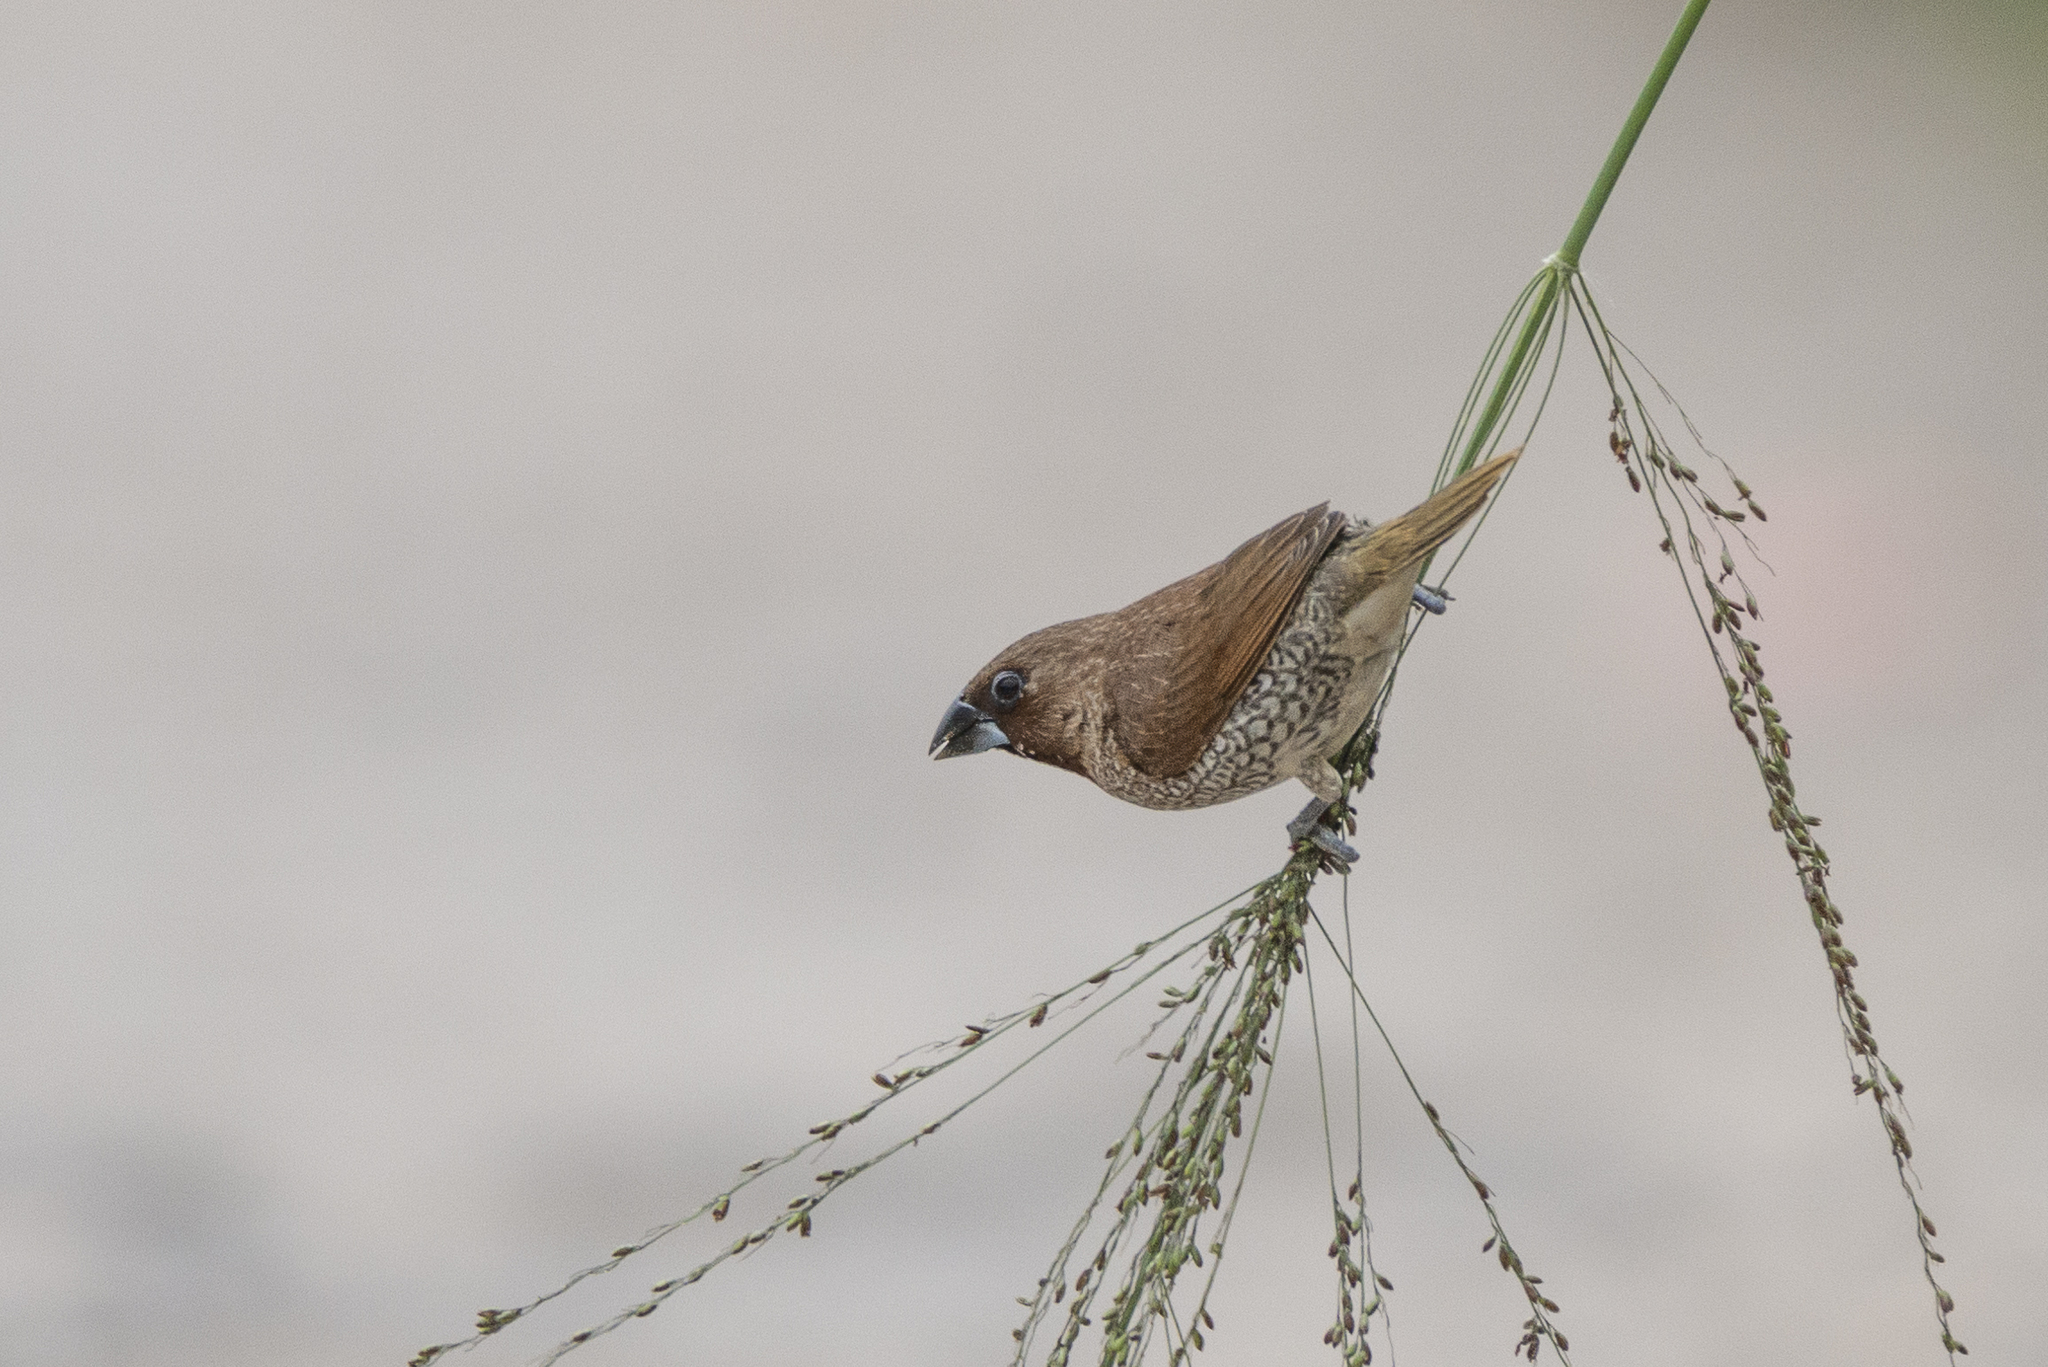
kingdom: Animalia
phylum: Chordata
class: Aves
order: Passeriformes
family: Estrildidae
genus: Lonchura
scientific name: Lonchura punctulata
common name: Scaly-breasted munia
